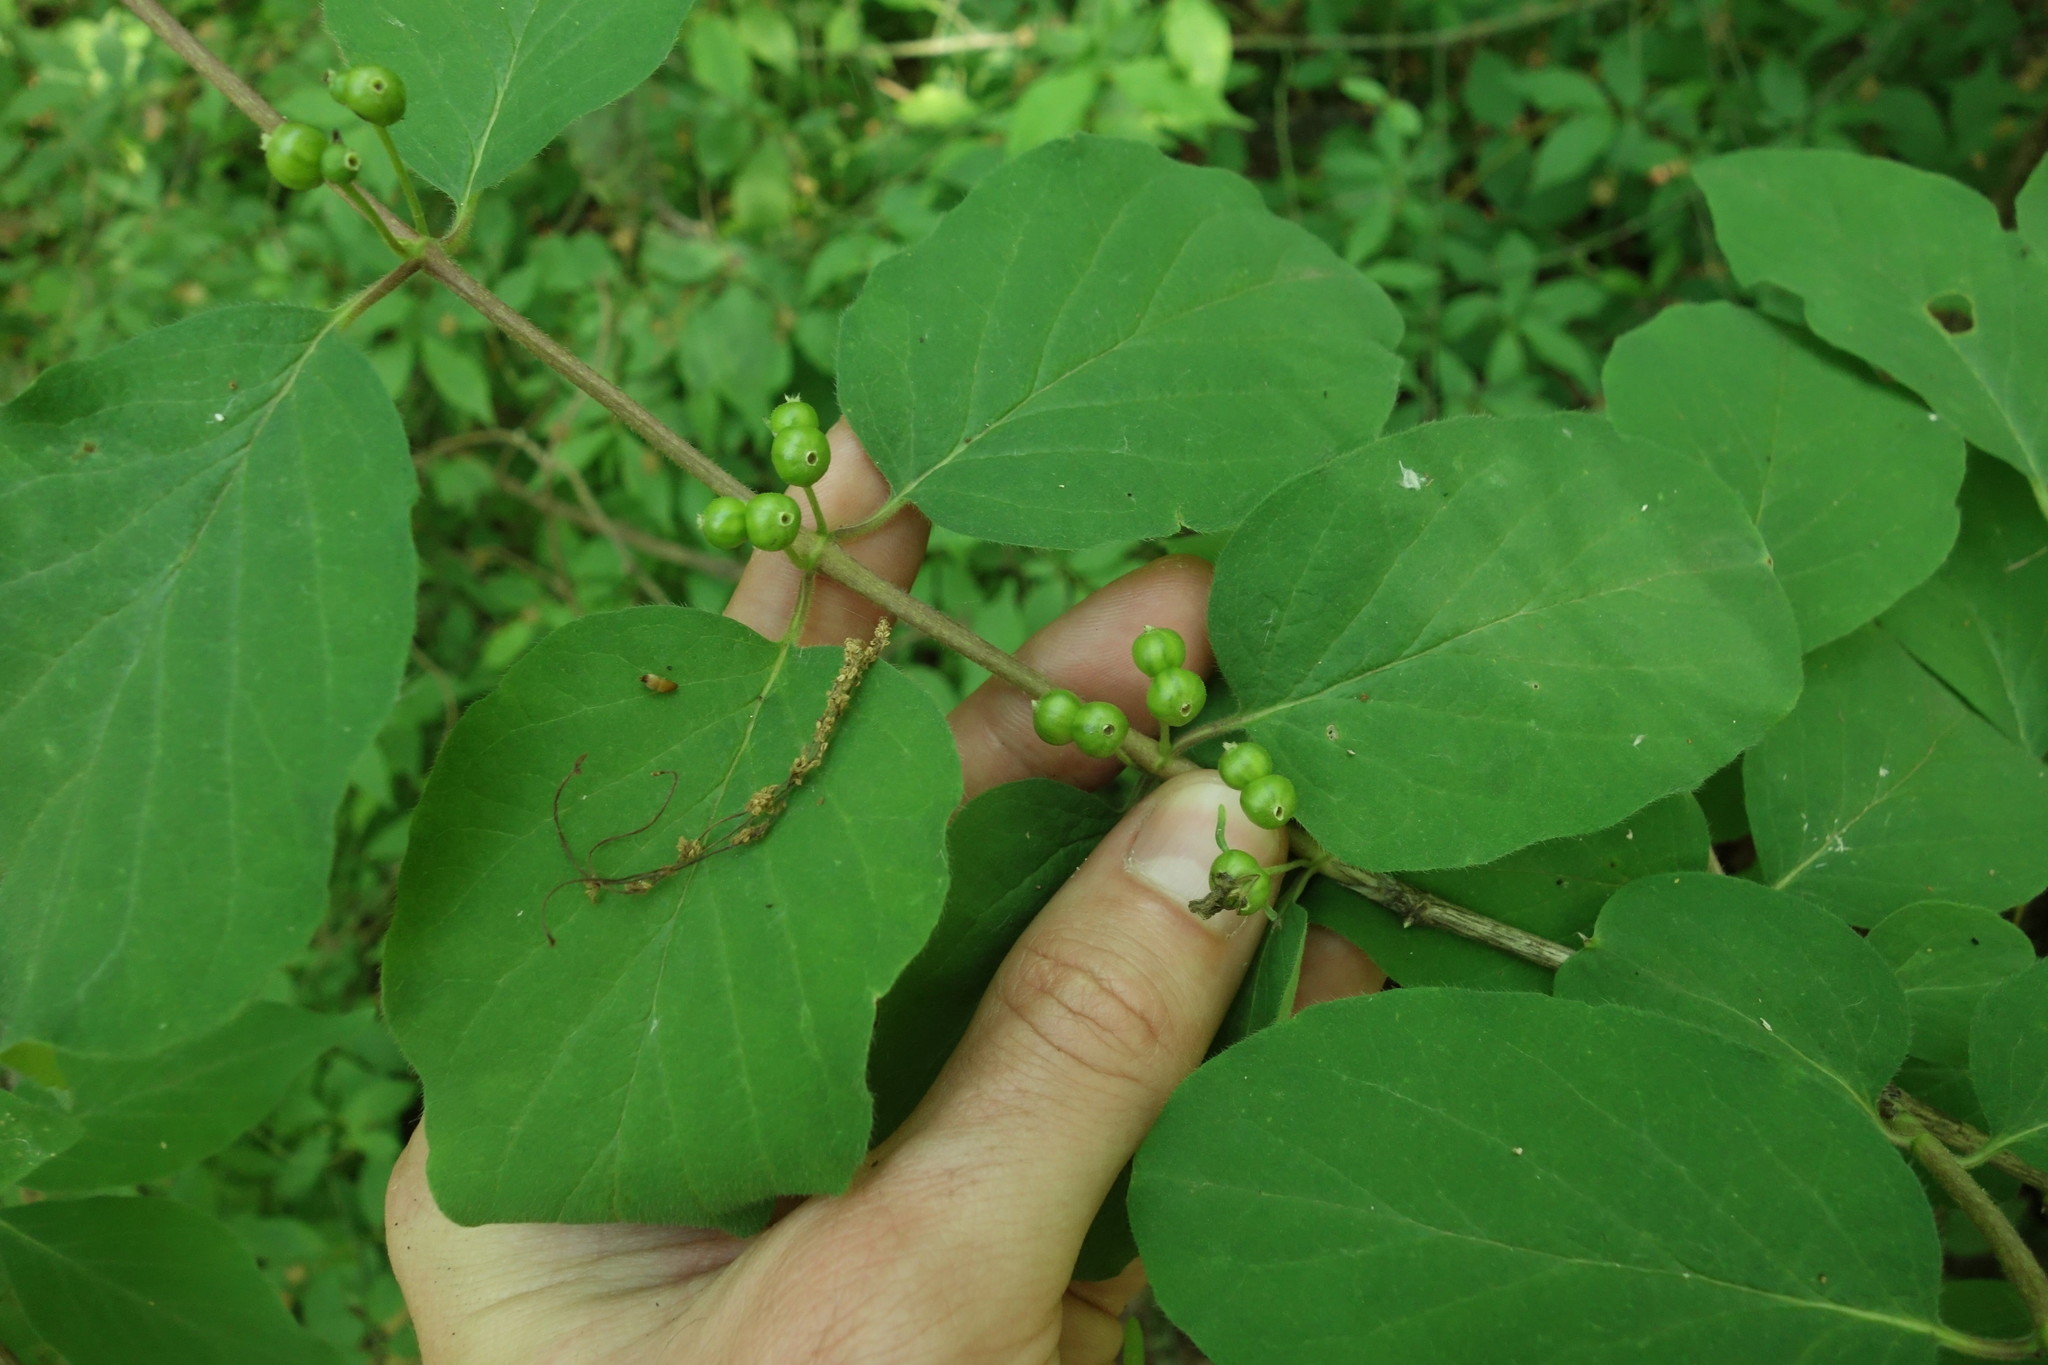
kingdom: Plantae
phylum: Tracheophyta
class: Magnoliopsida
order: Dipsacales
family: Caprifoliaceae
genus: Lonicera
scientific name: Lonicera xylosteum
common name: Fly honeysuckle
